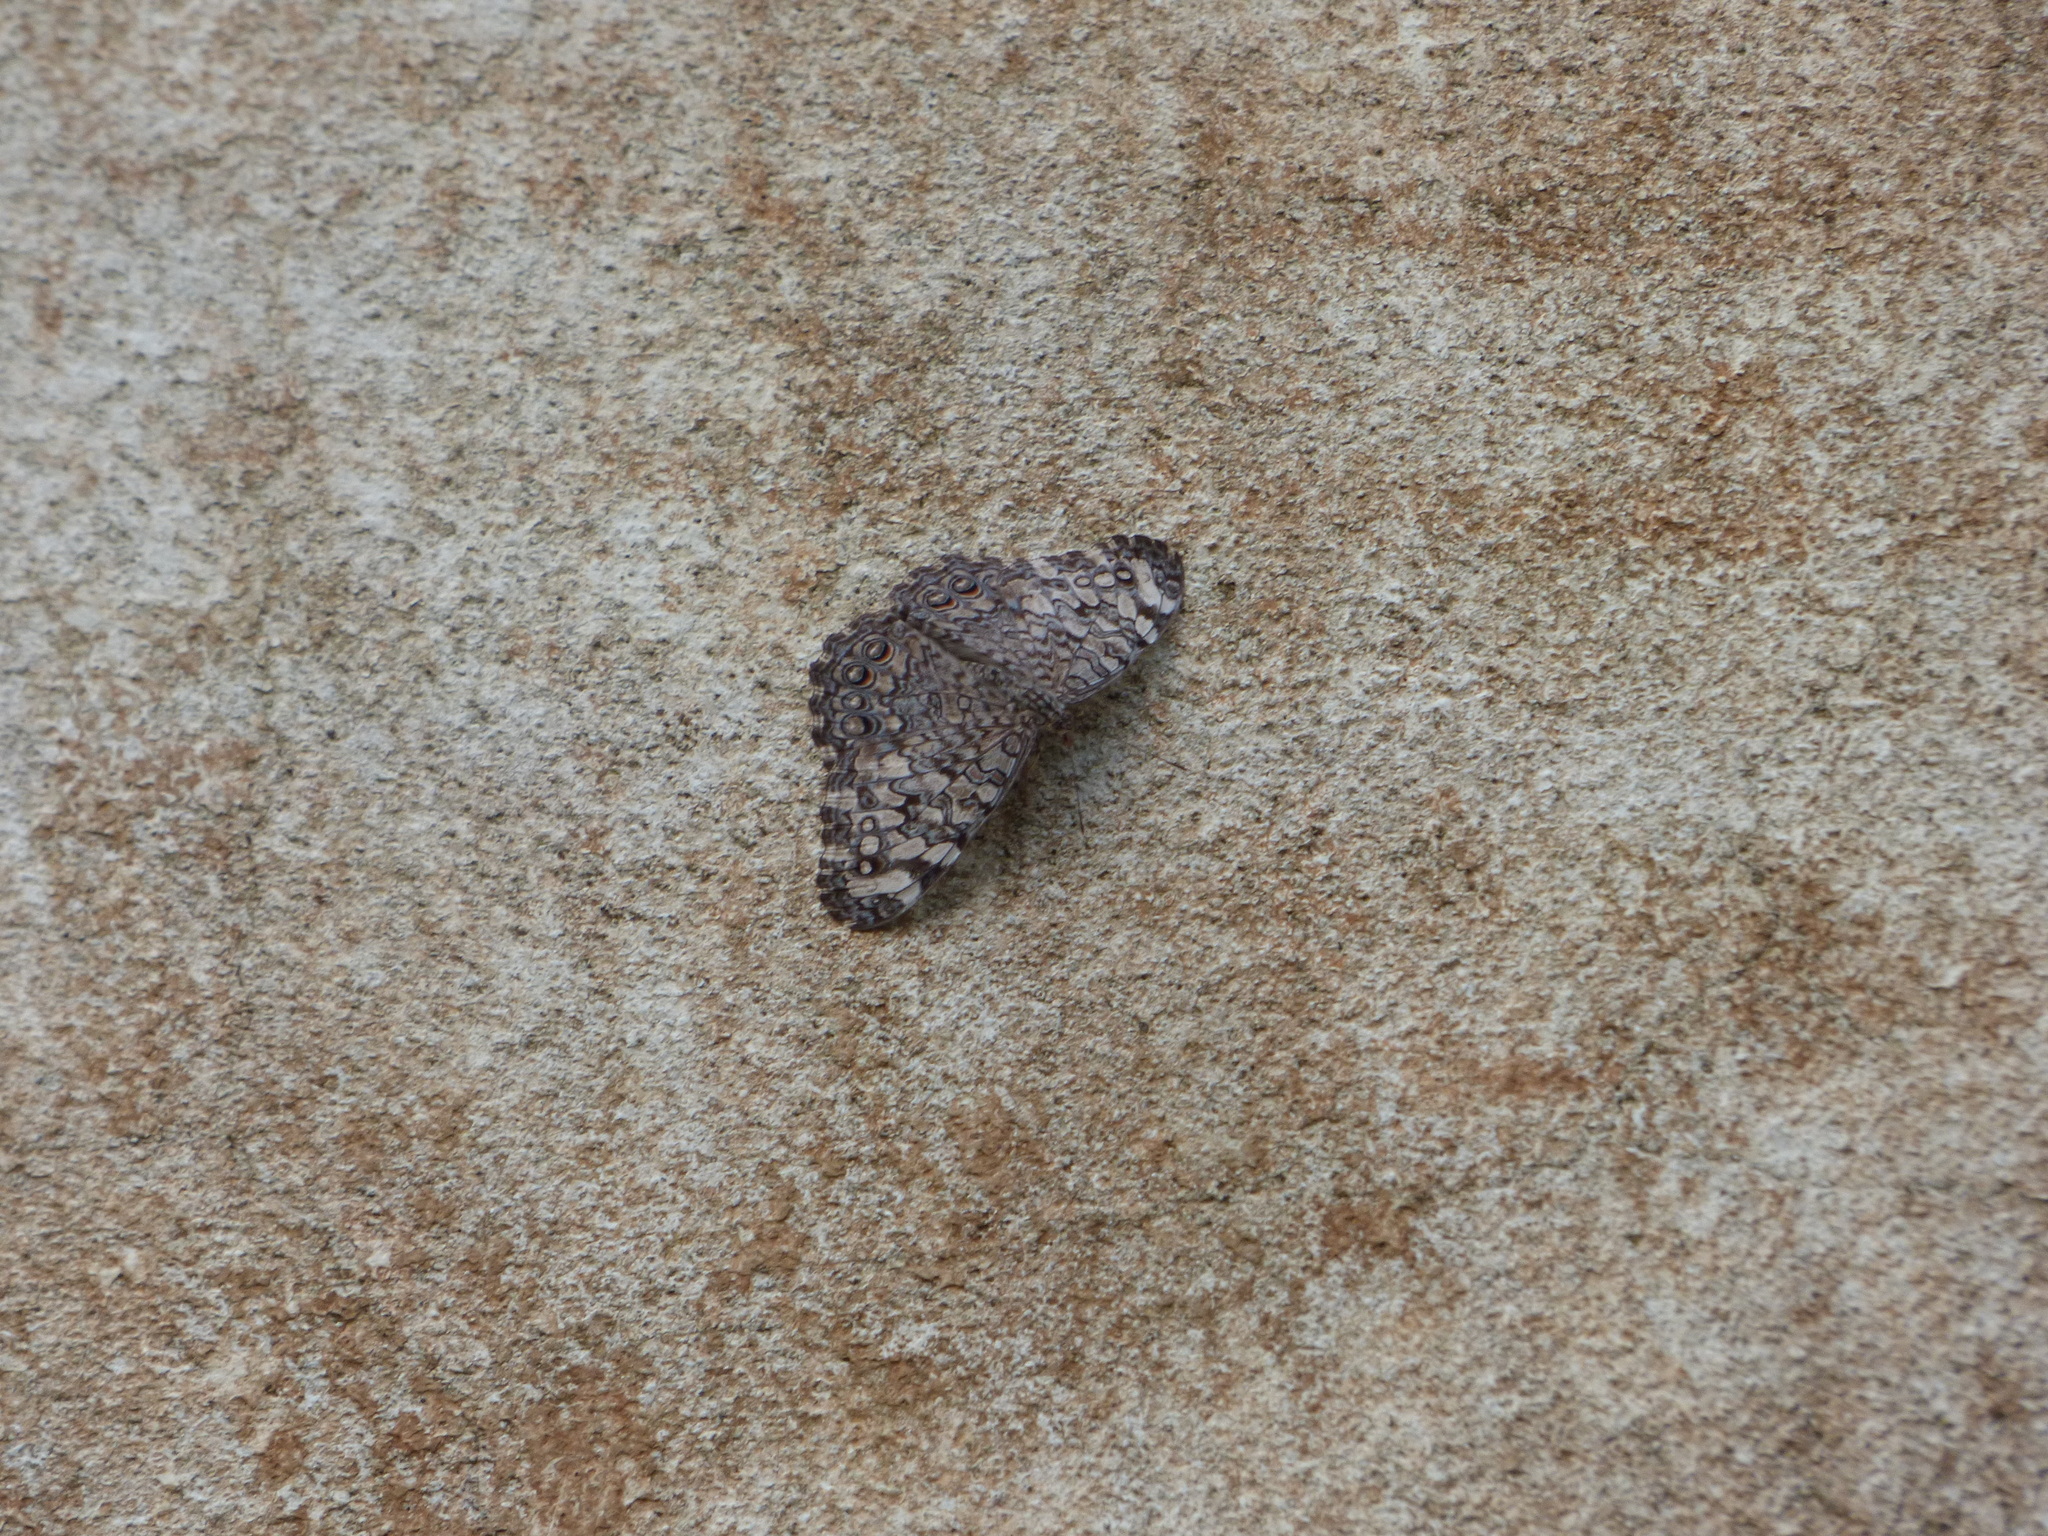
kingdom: Animalia
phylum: Arthropoda
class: Insecta
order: Lepidoptera
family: Nymphalidae
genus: Hamadryas
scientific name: Hamadryas februa
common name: Gray cracker
